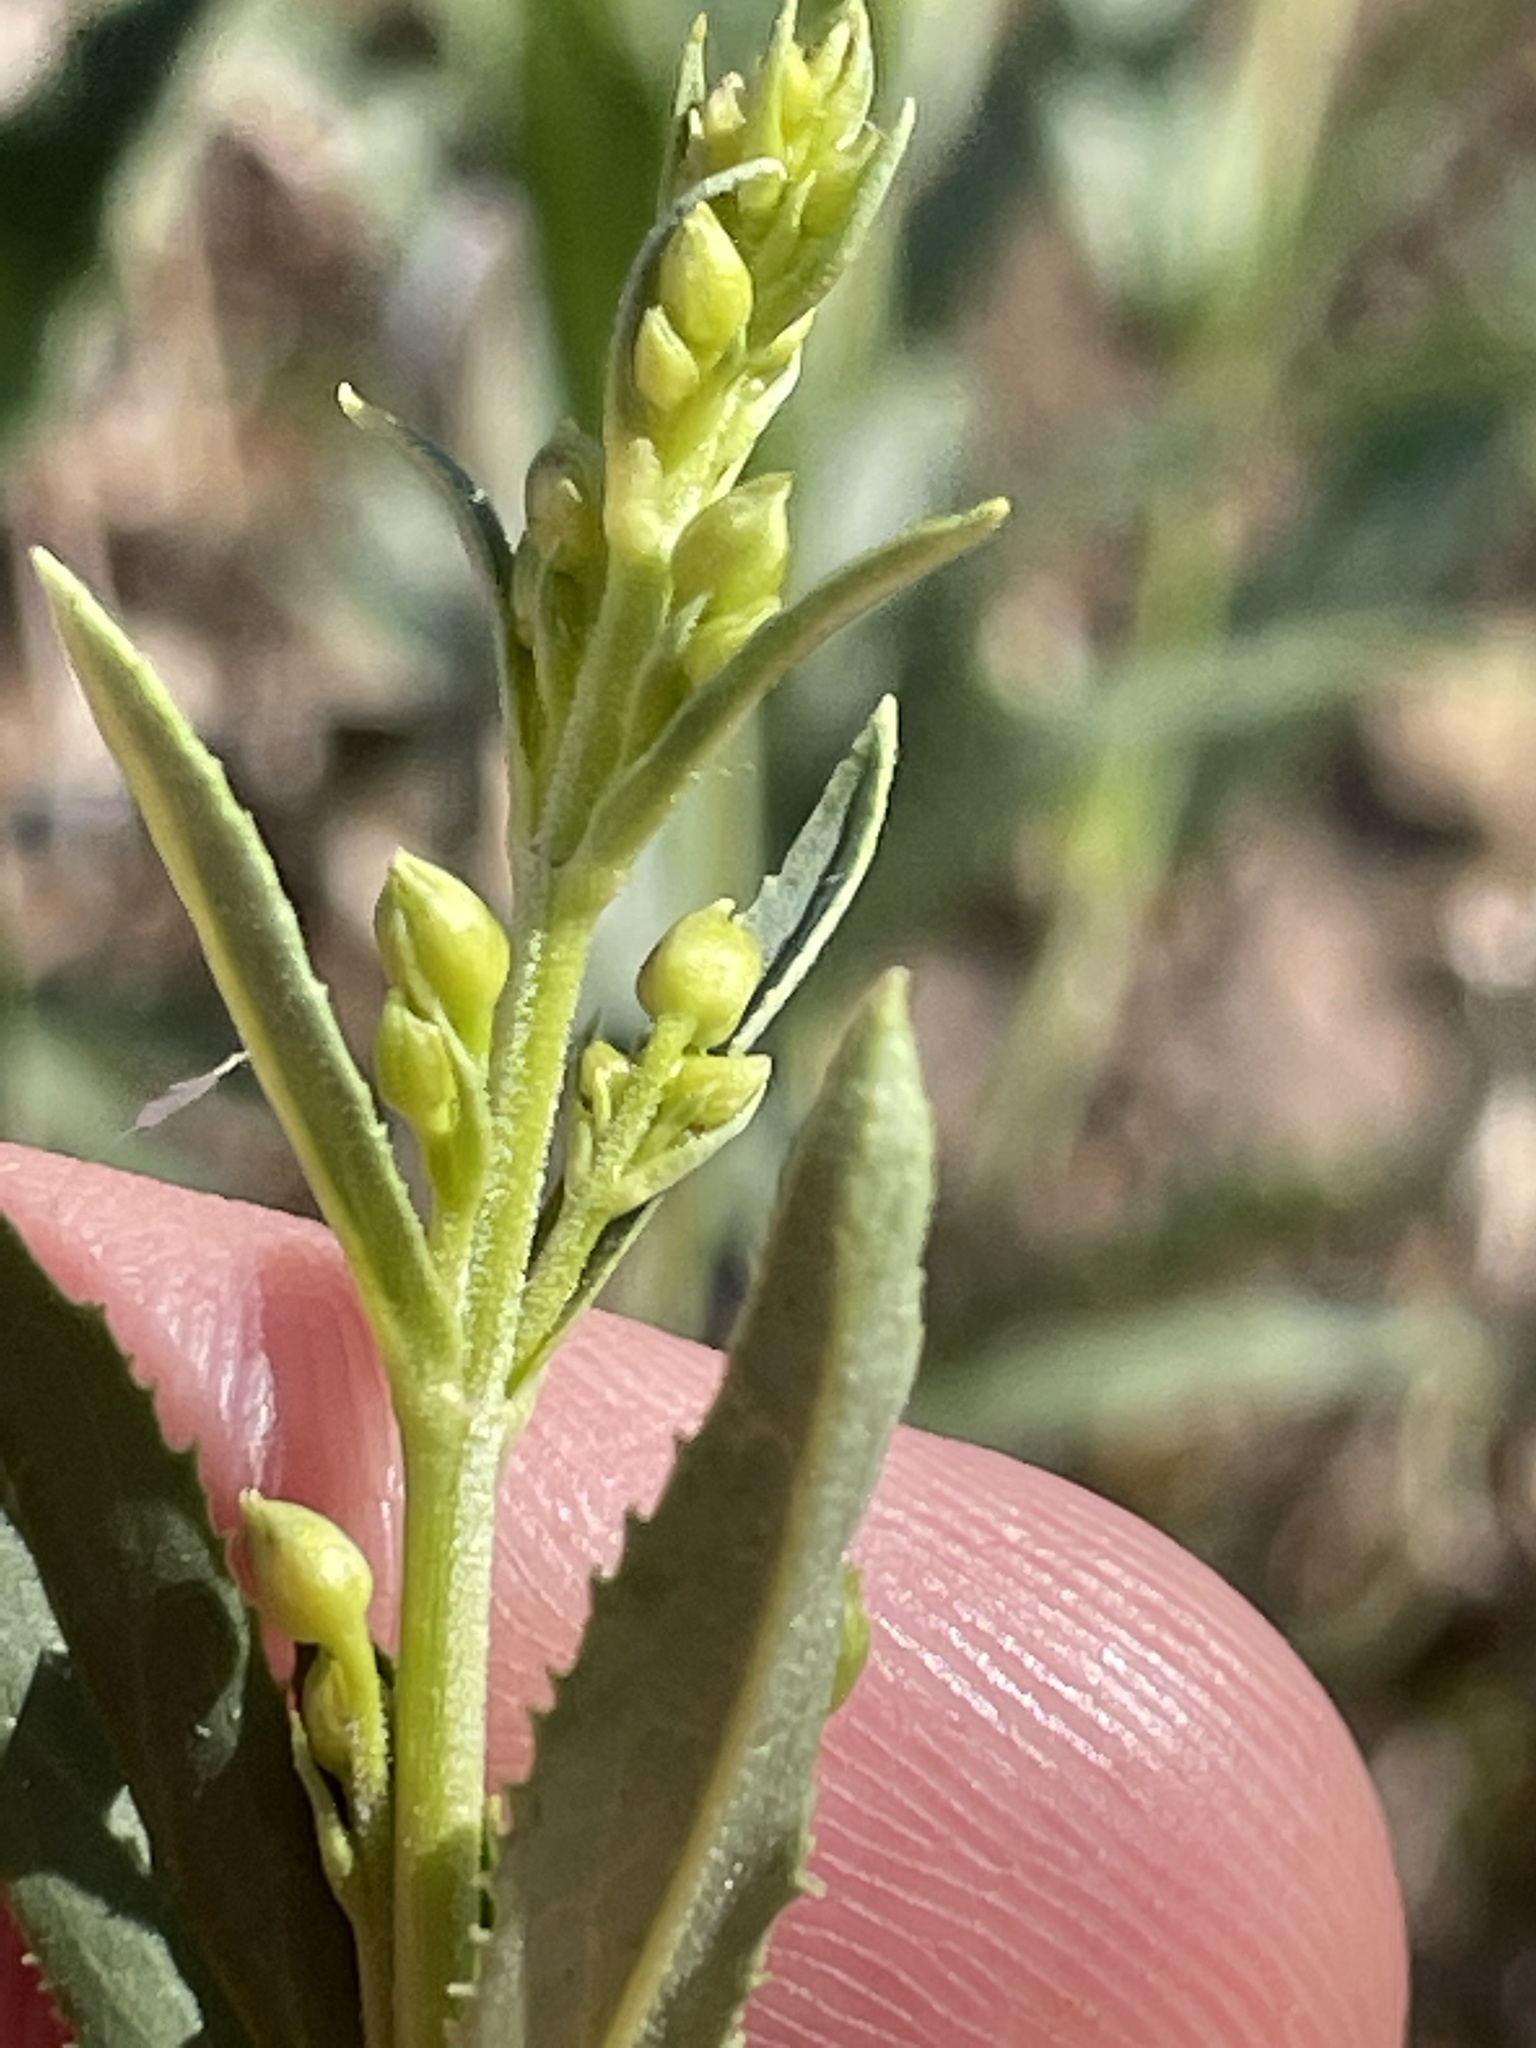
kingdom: Plantae
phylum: Tracheophyta
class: Magnoliopsida
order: Lamiales
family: Plantaginaceae
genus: Penstemon
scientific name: Penstemon deustus
